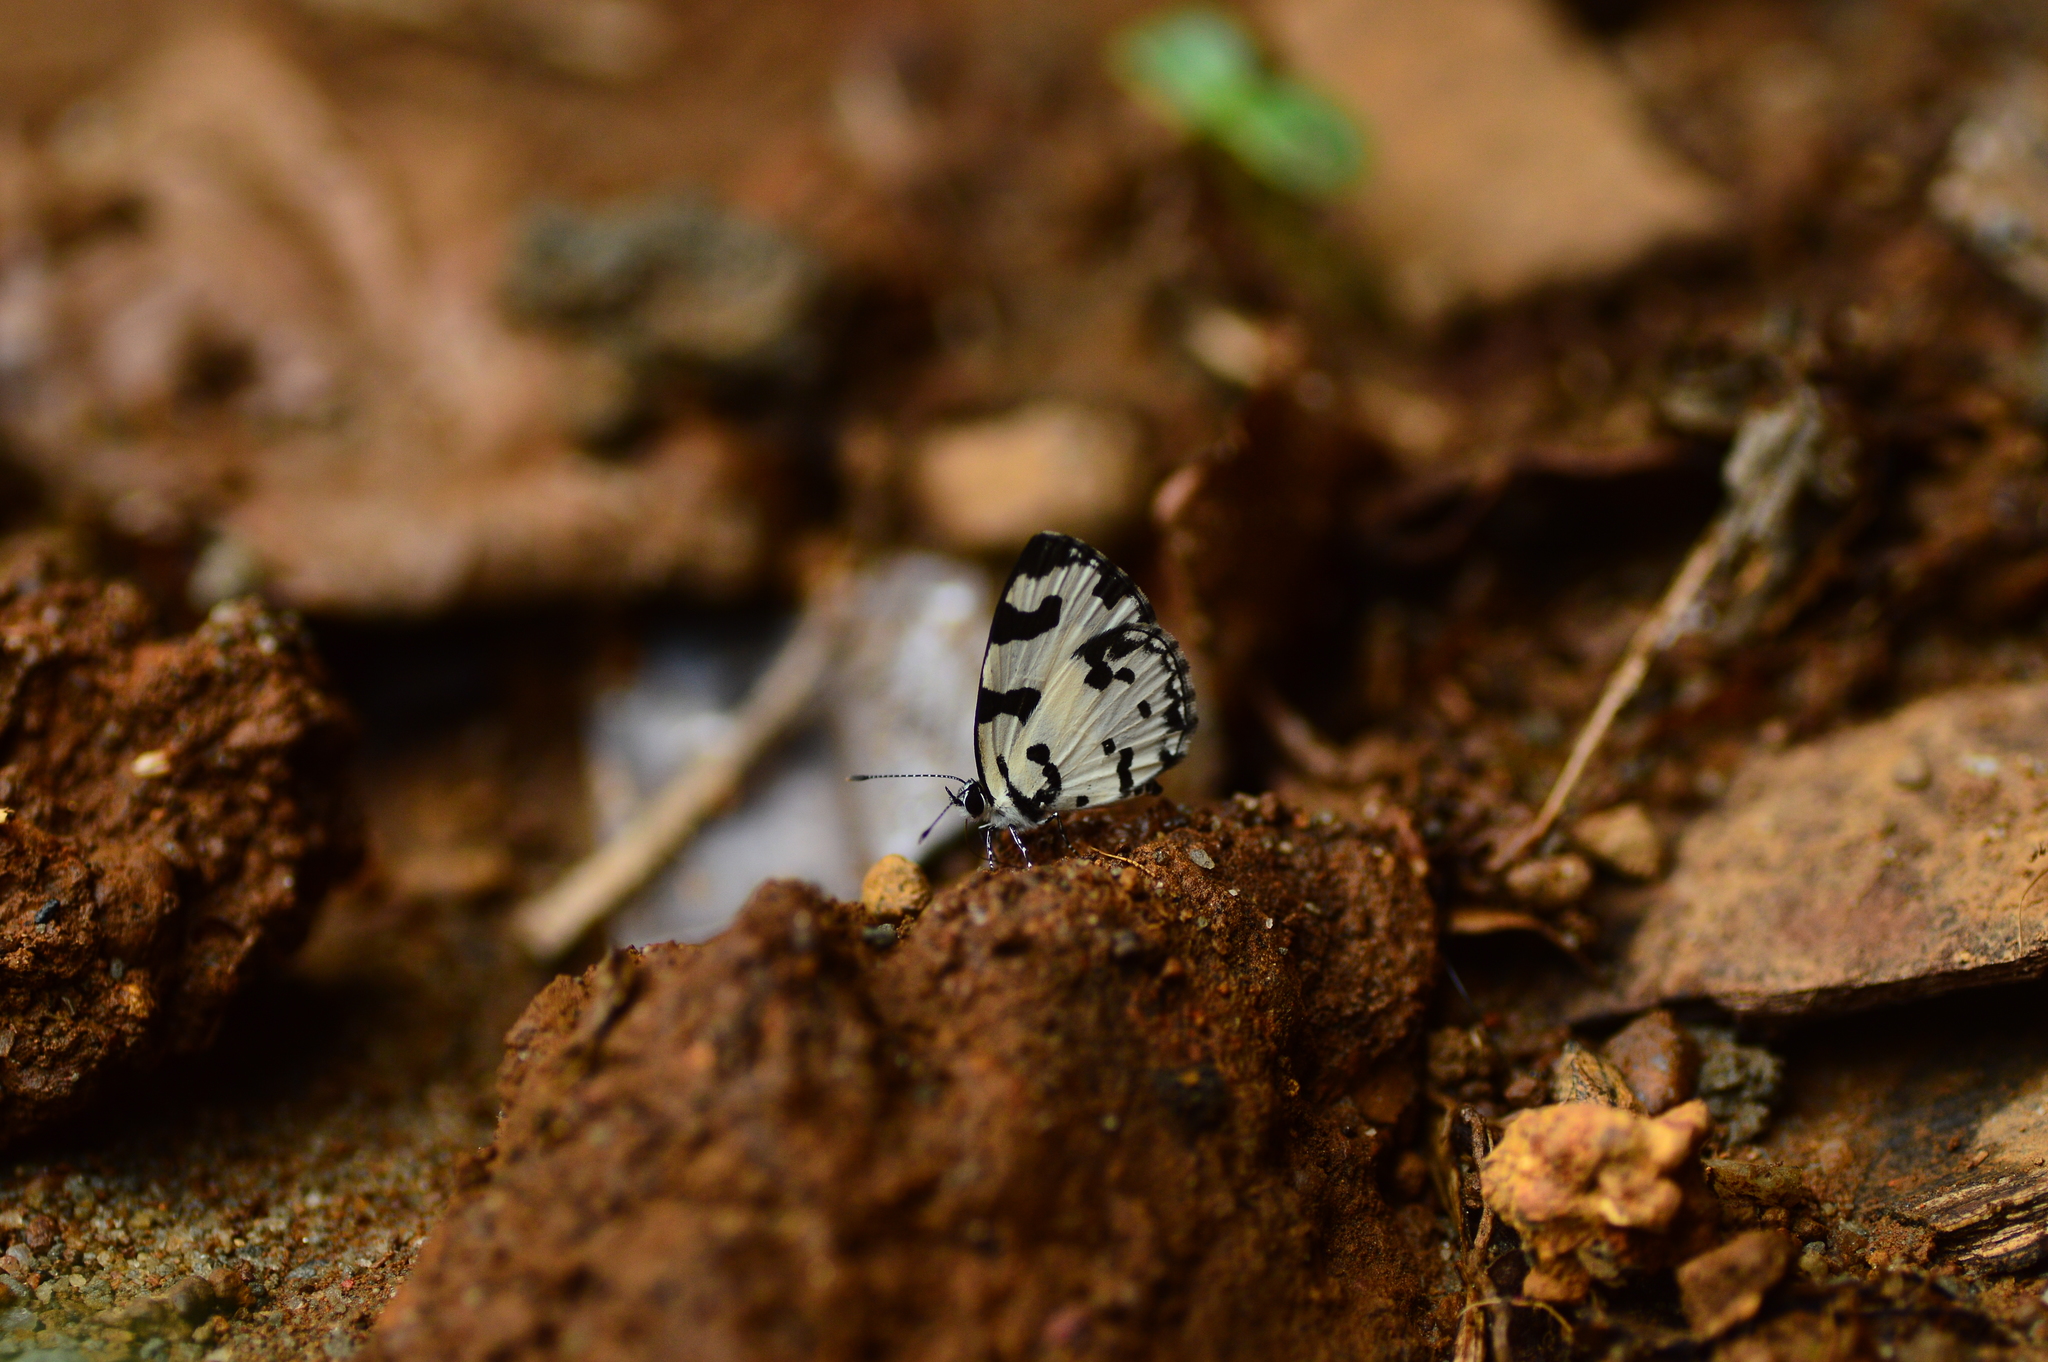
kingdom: Animalia
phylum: Arthropoda
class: Insecta
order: Lepidoptera
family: Lycaenidae
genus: Caleta
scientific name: Caleta decidia
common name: Angled pierrot
